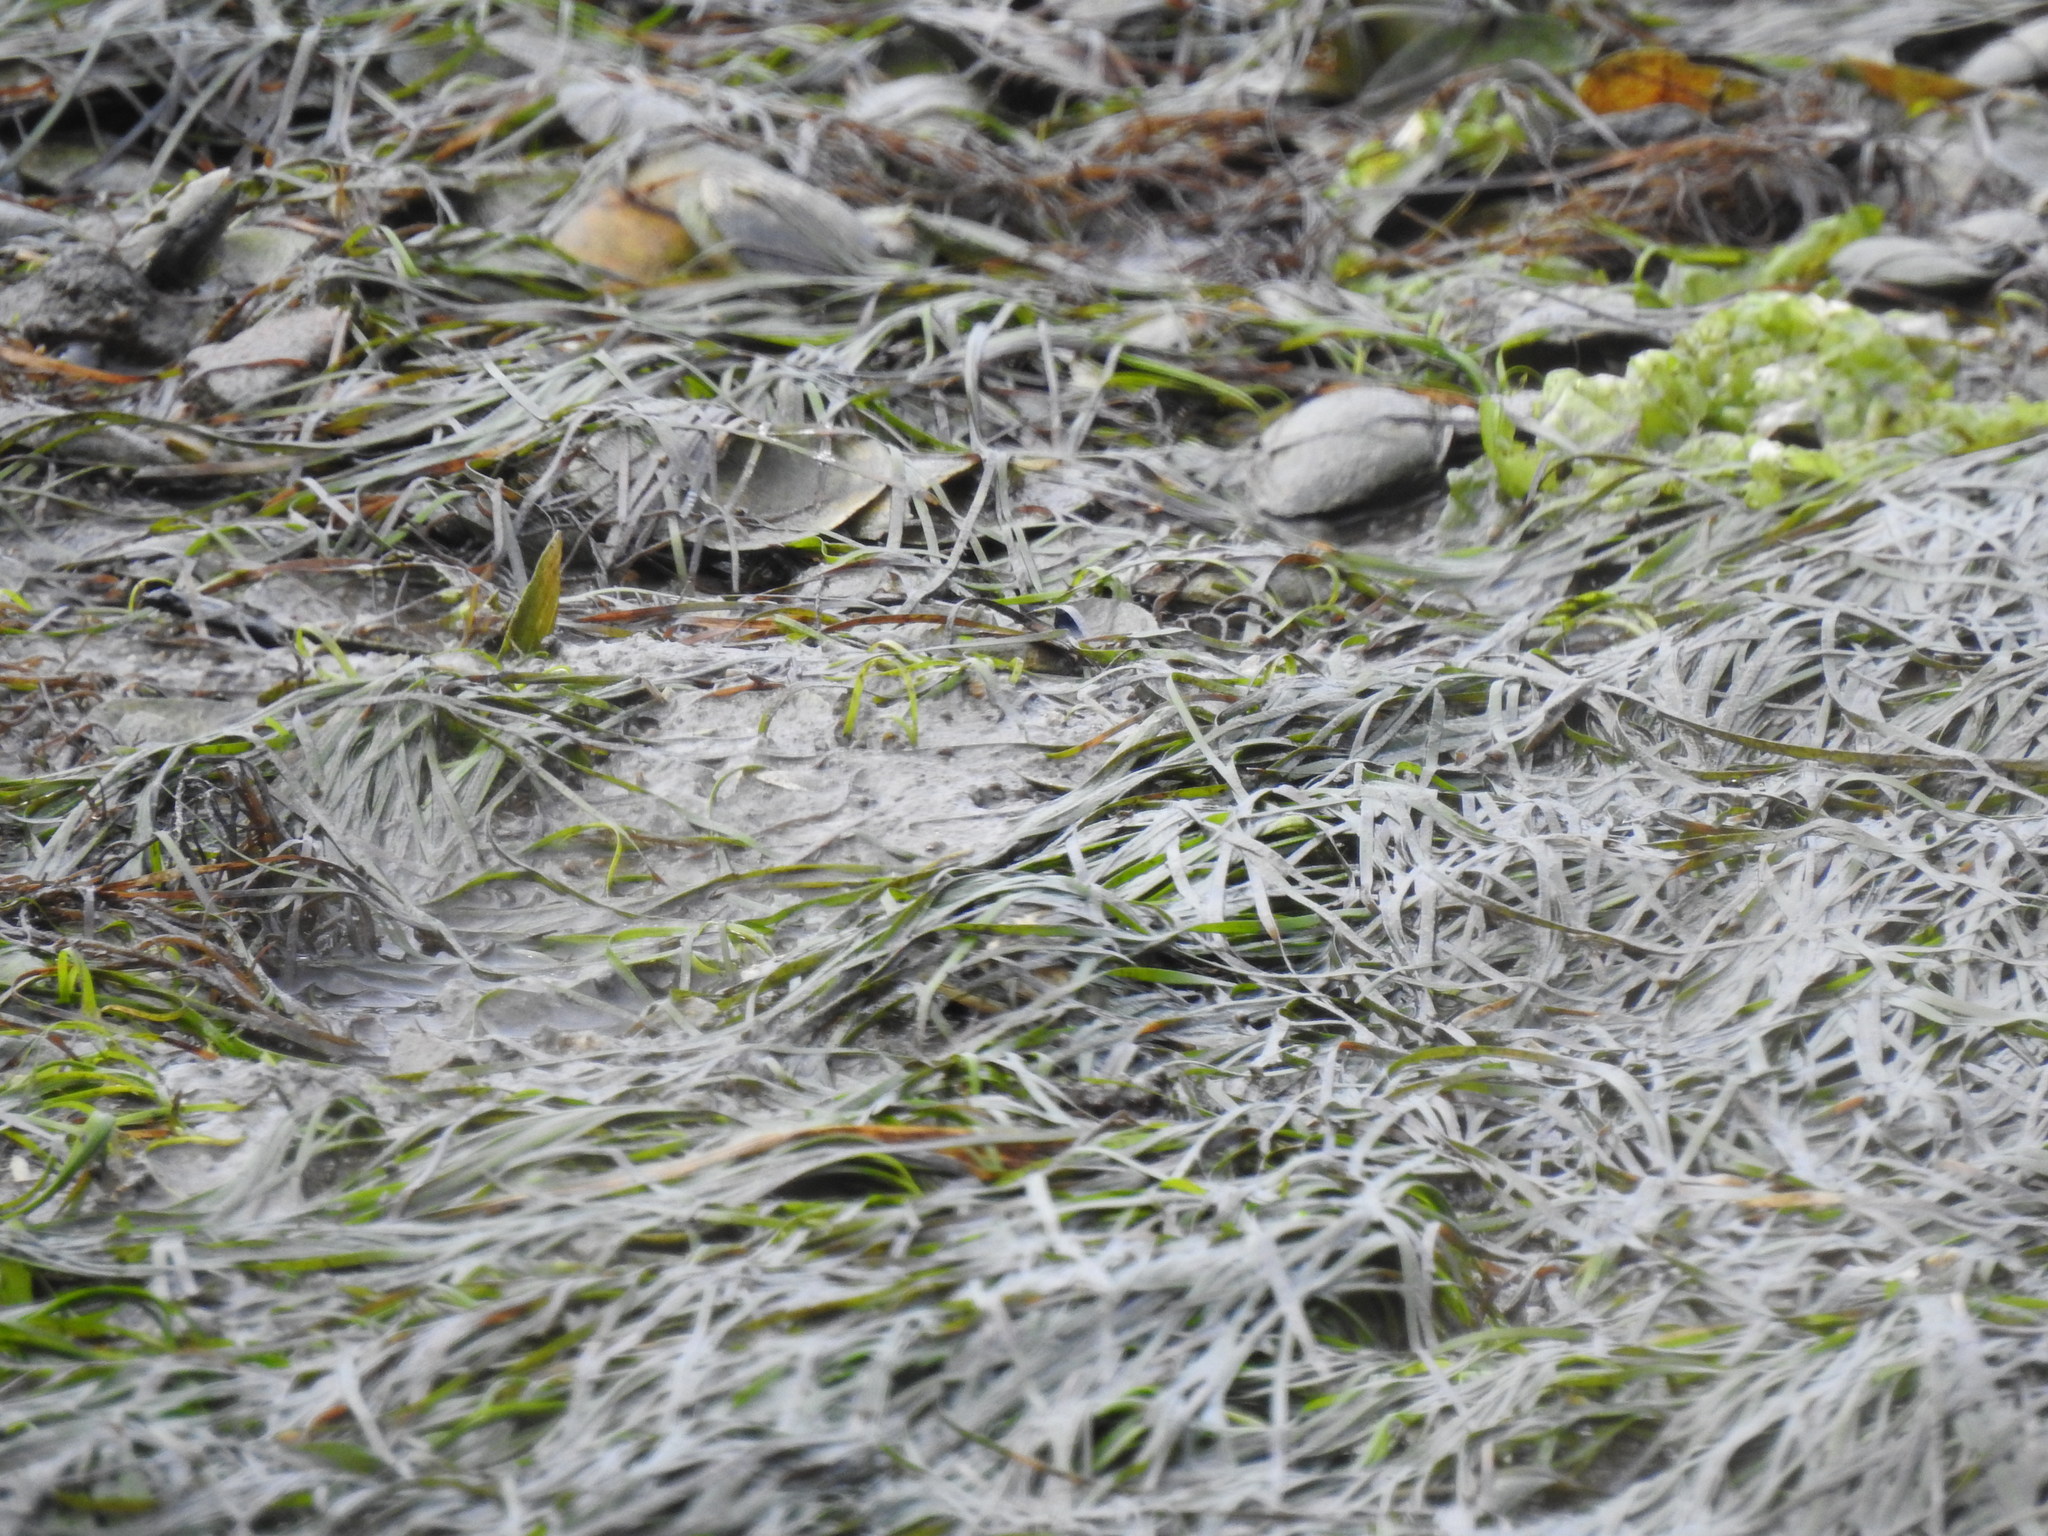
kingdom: Plantae
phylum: Tracheophyta
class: Liliopsida
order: Alismatales
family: Zosteraceae
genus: Zostera
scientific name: Zostera noltii
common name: Dwarf eelgrass
